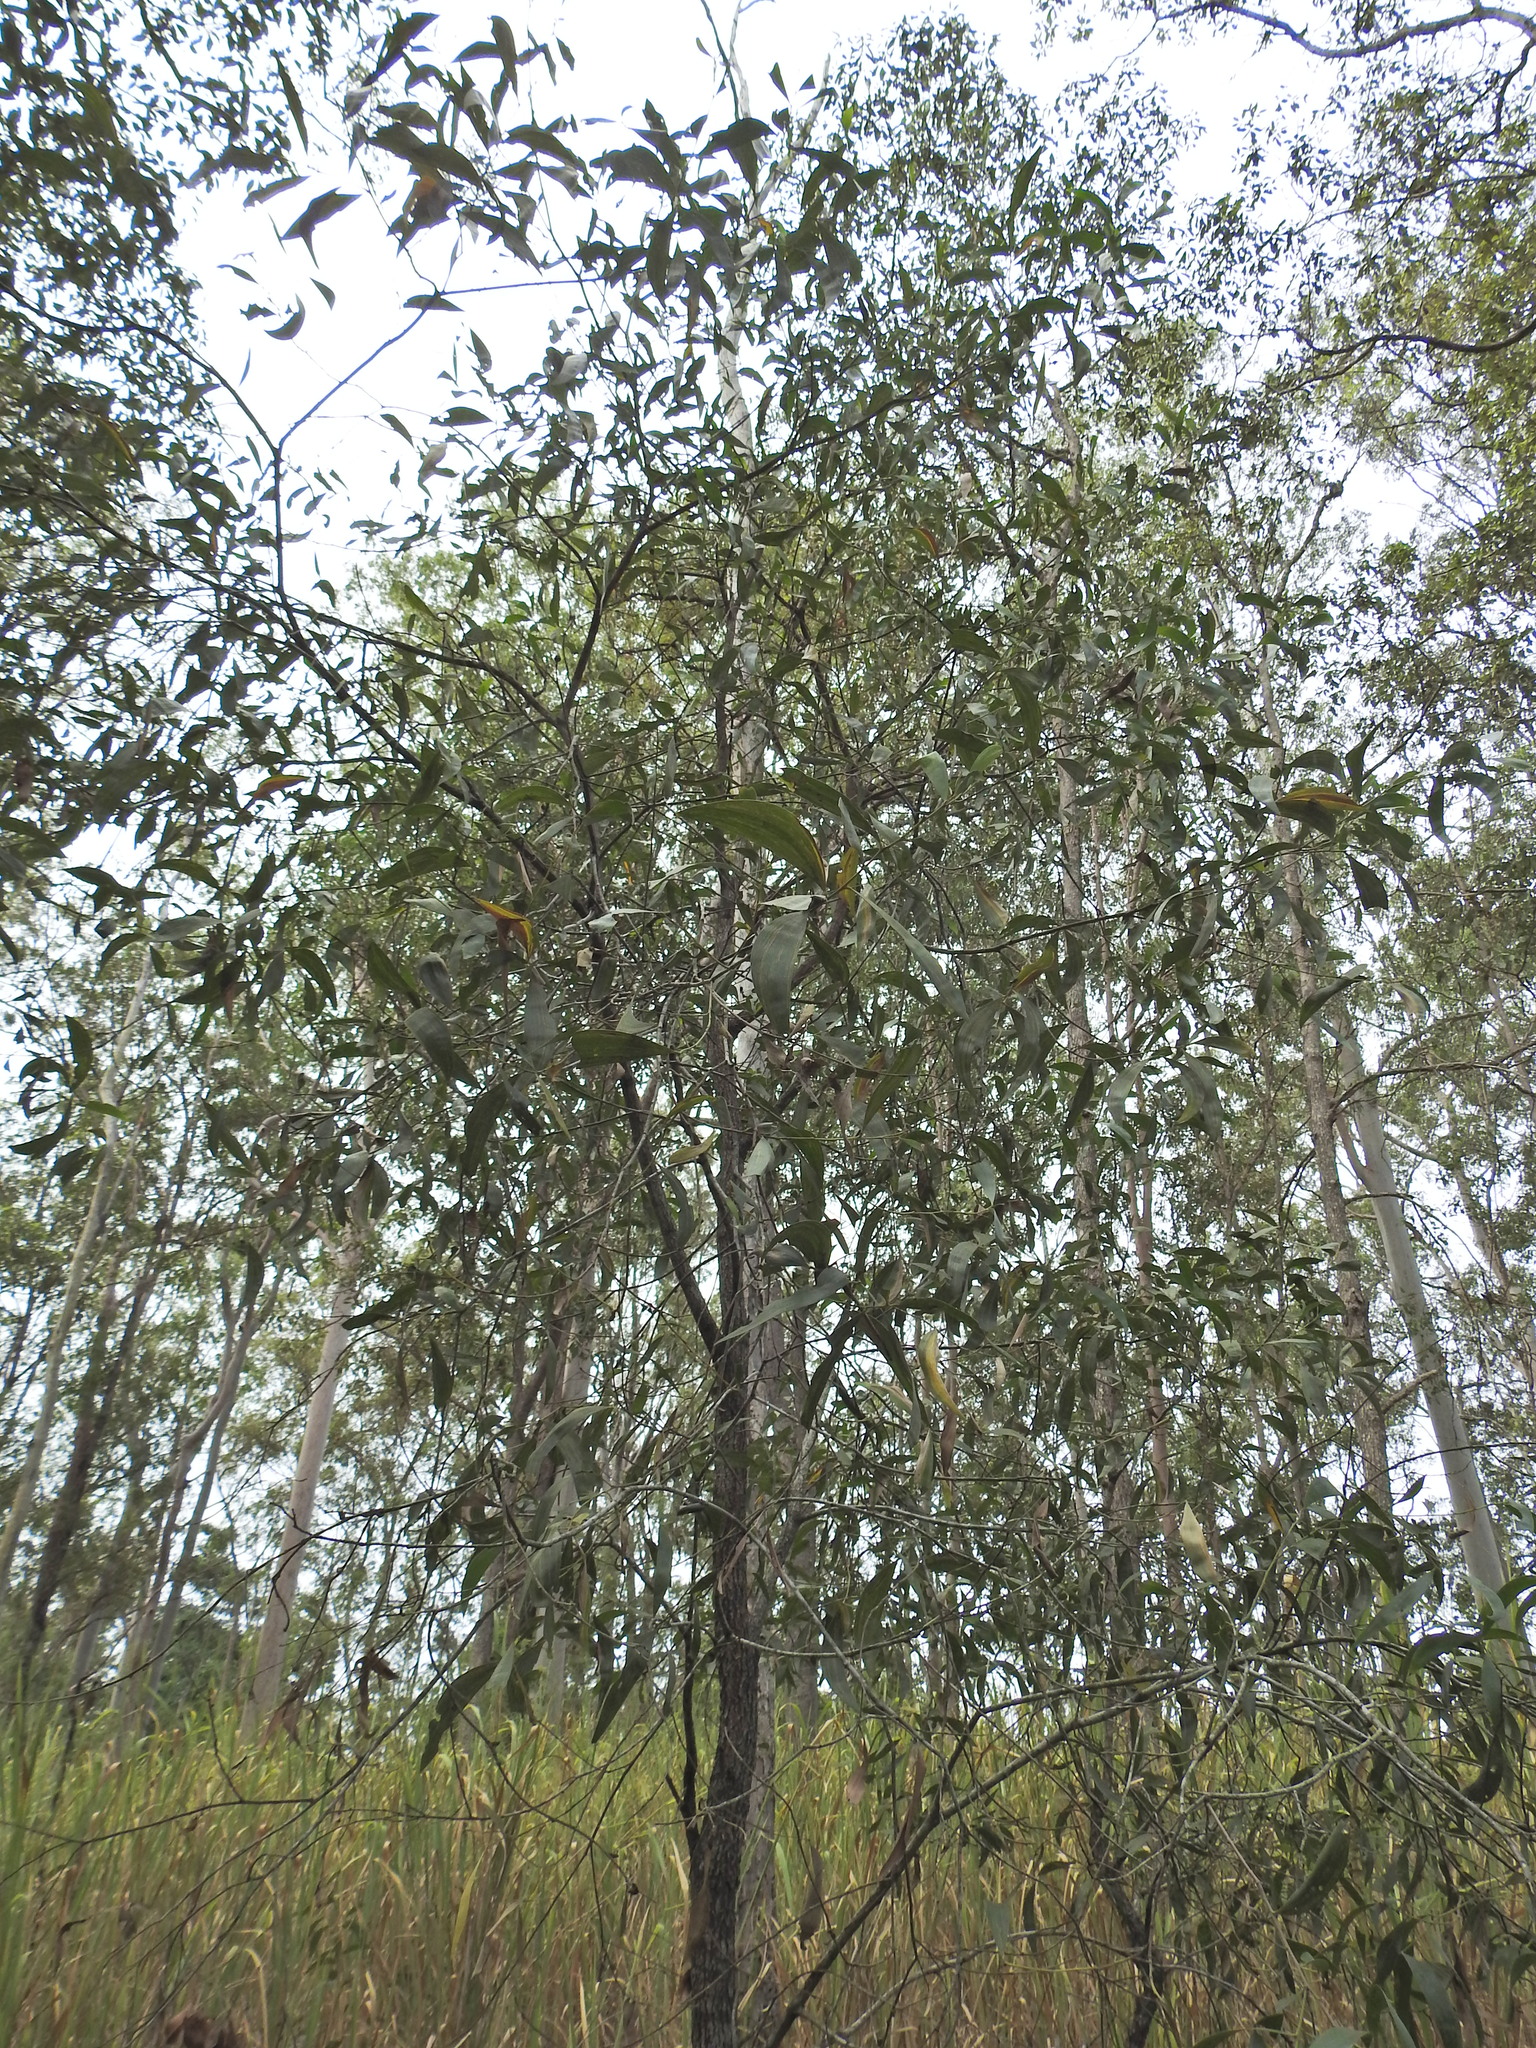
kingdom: Plantae
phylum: Tracheophyta
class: Magnoliopsida
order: Fabales
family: Fabaceae
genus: Acacia
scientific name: Acacia disparrima
